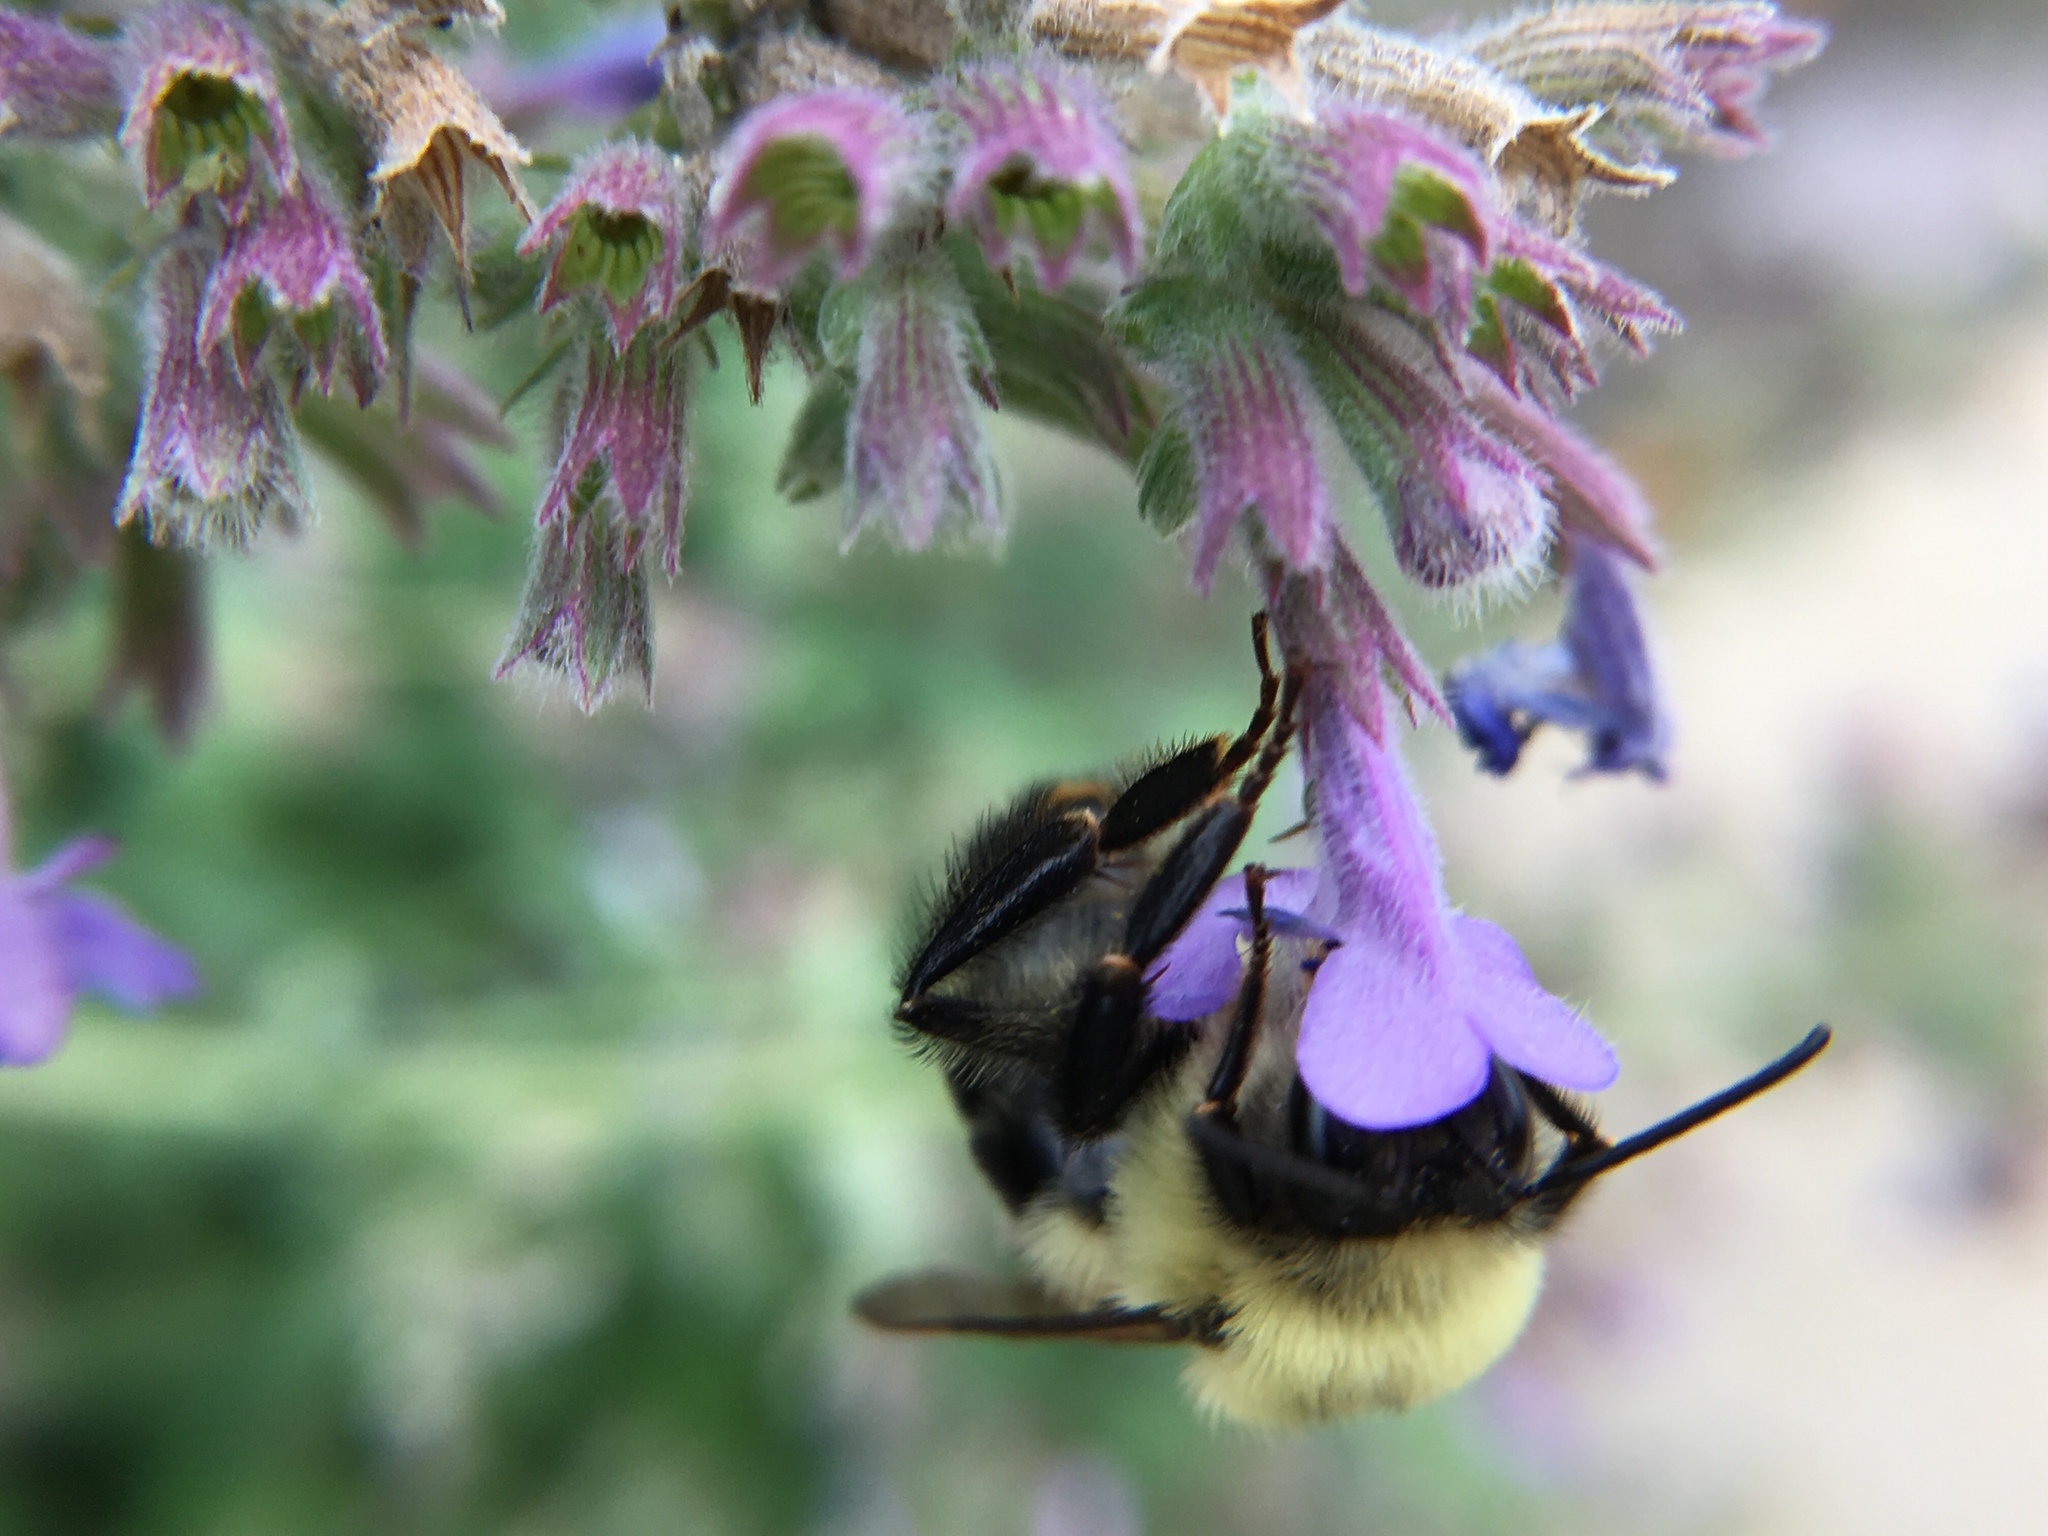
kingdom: Animalia
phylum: Arthropoda
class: Insecta
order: Hymenoptera
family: Apidae
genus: Bombus
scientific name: Bombus bimaculatus
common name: Two-spotted bumble bee
